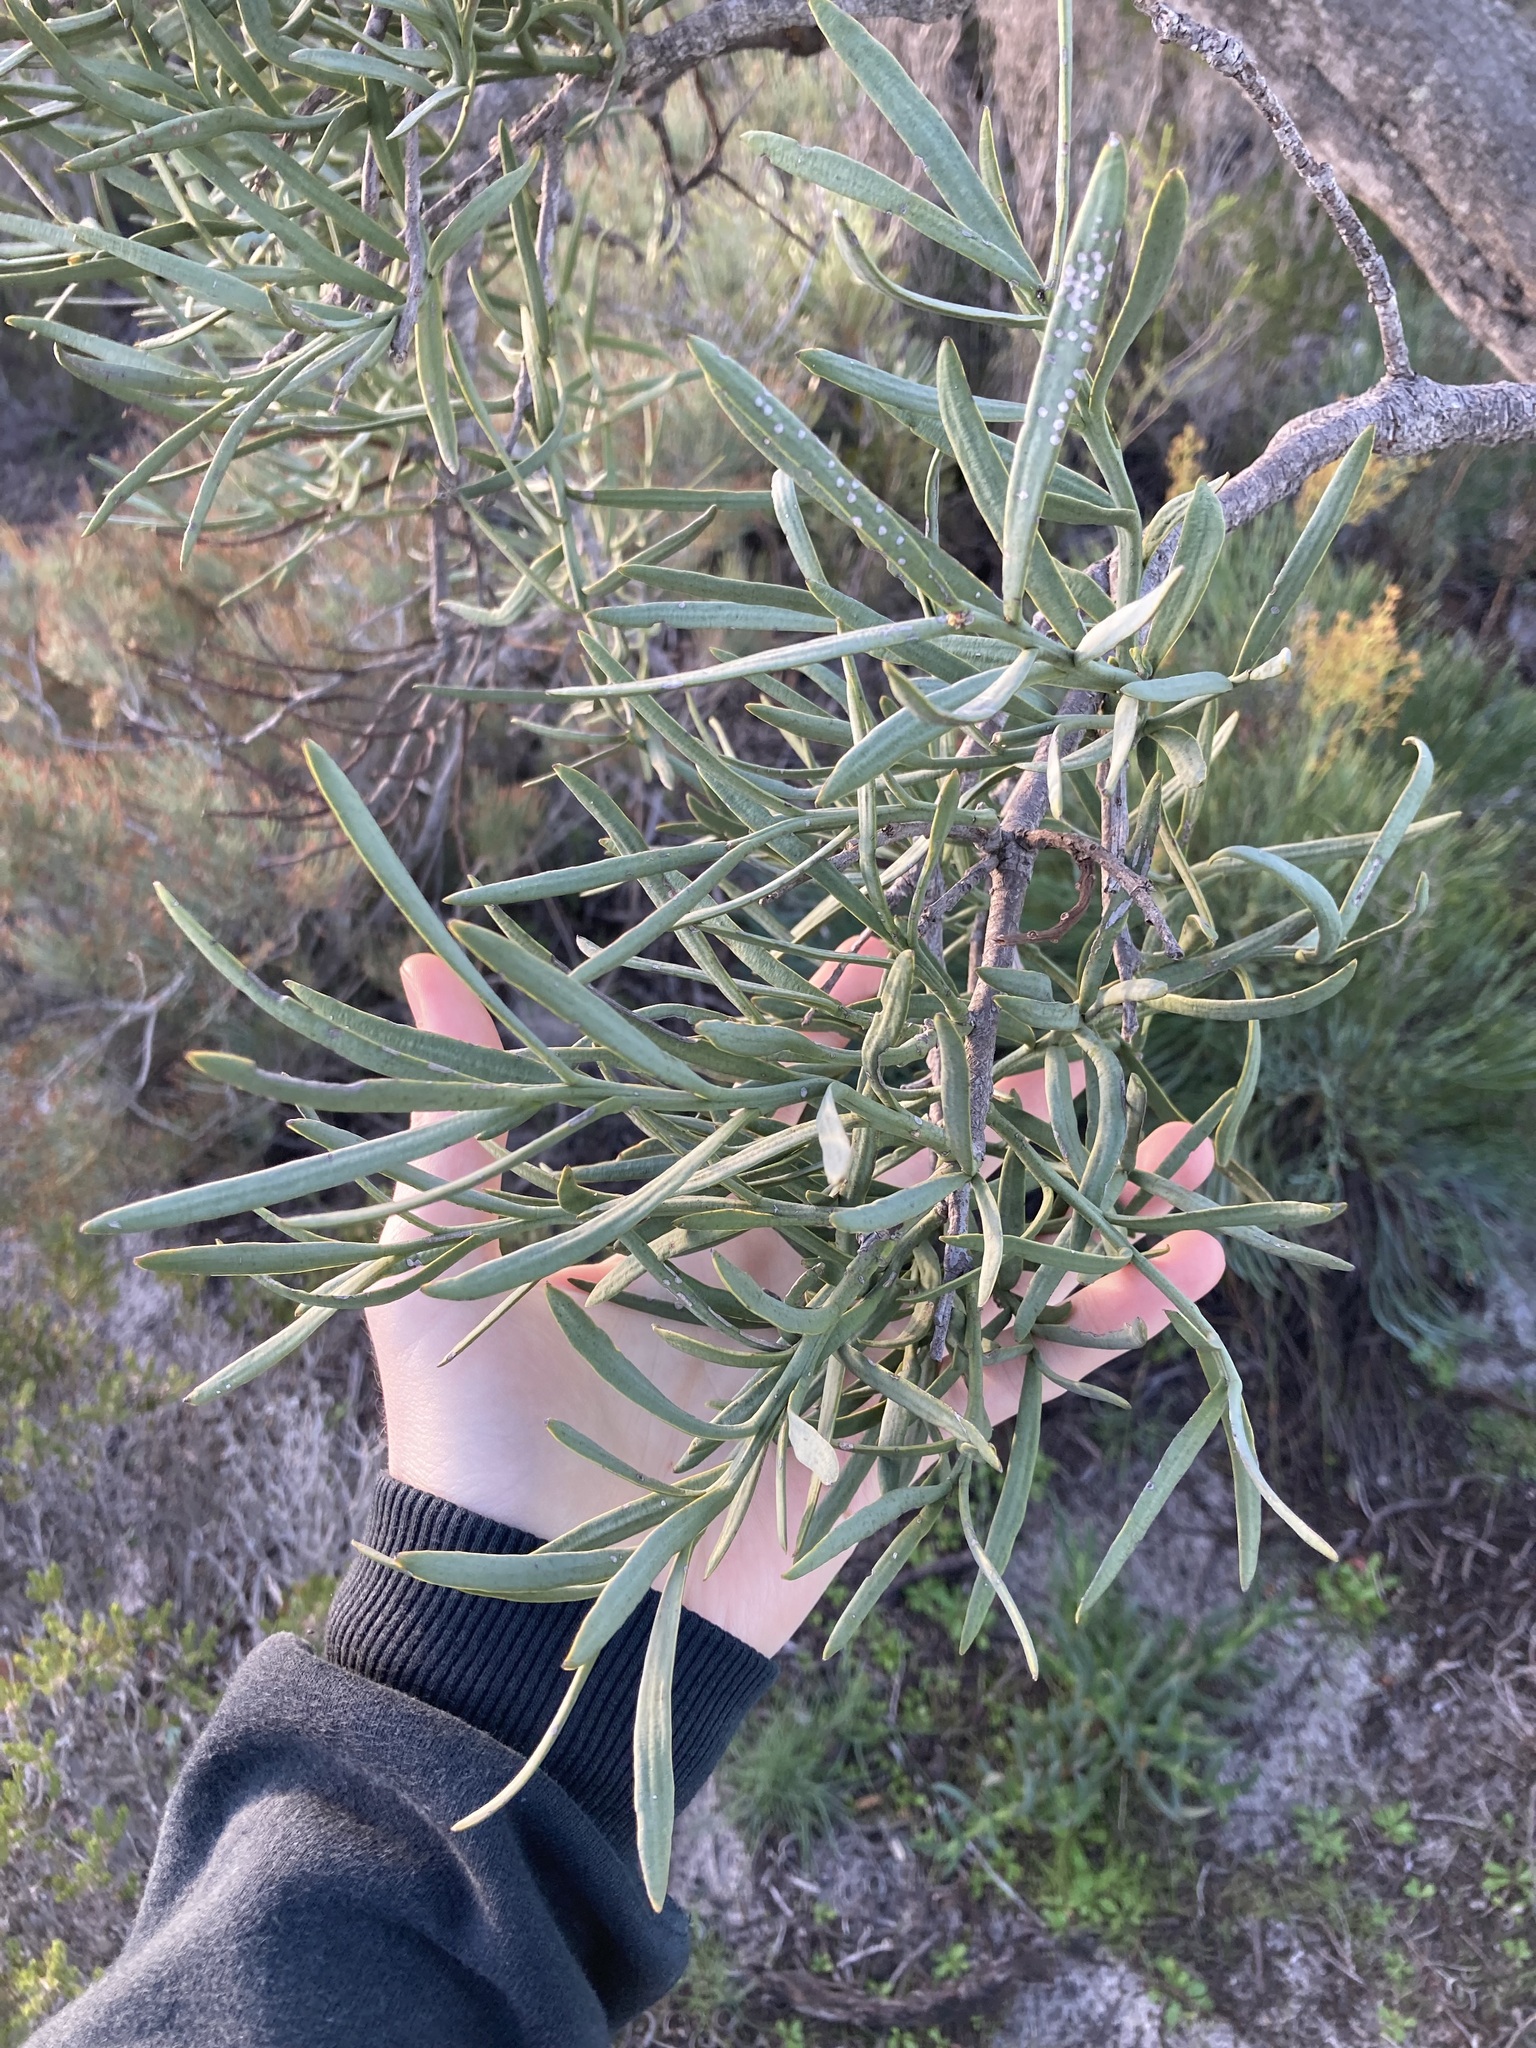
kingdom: Plantae
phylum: Tracheophyta
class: Magnoliopsida
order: Santalales
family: Loranthaceae
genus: Nuytsia
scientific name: Nuytsia floribunda
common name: Western australian christmastree
